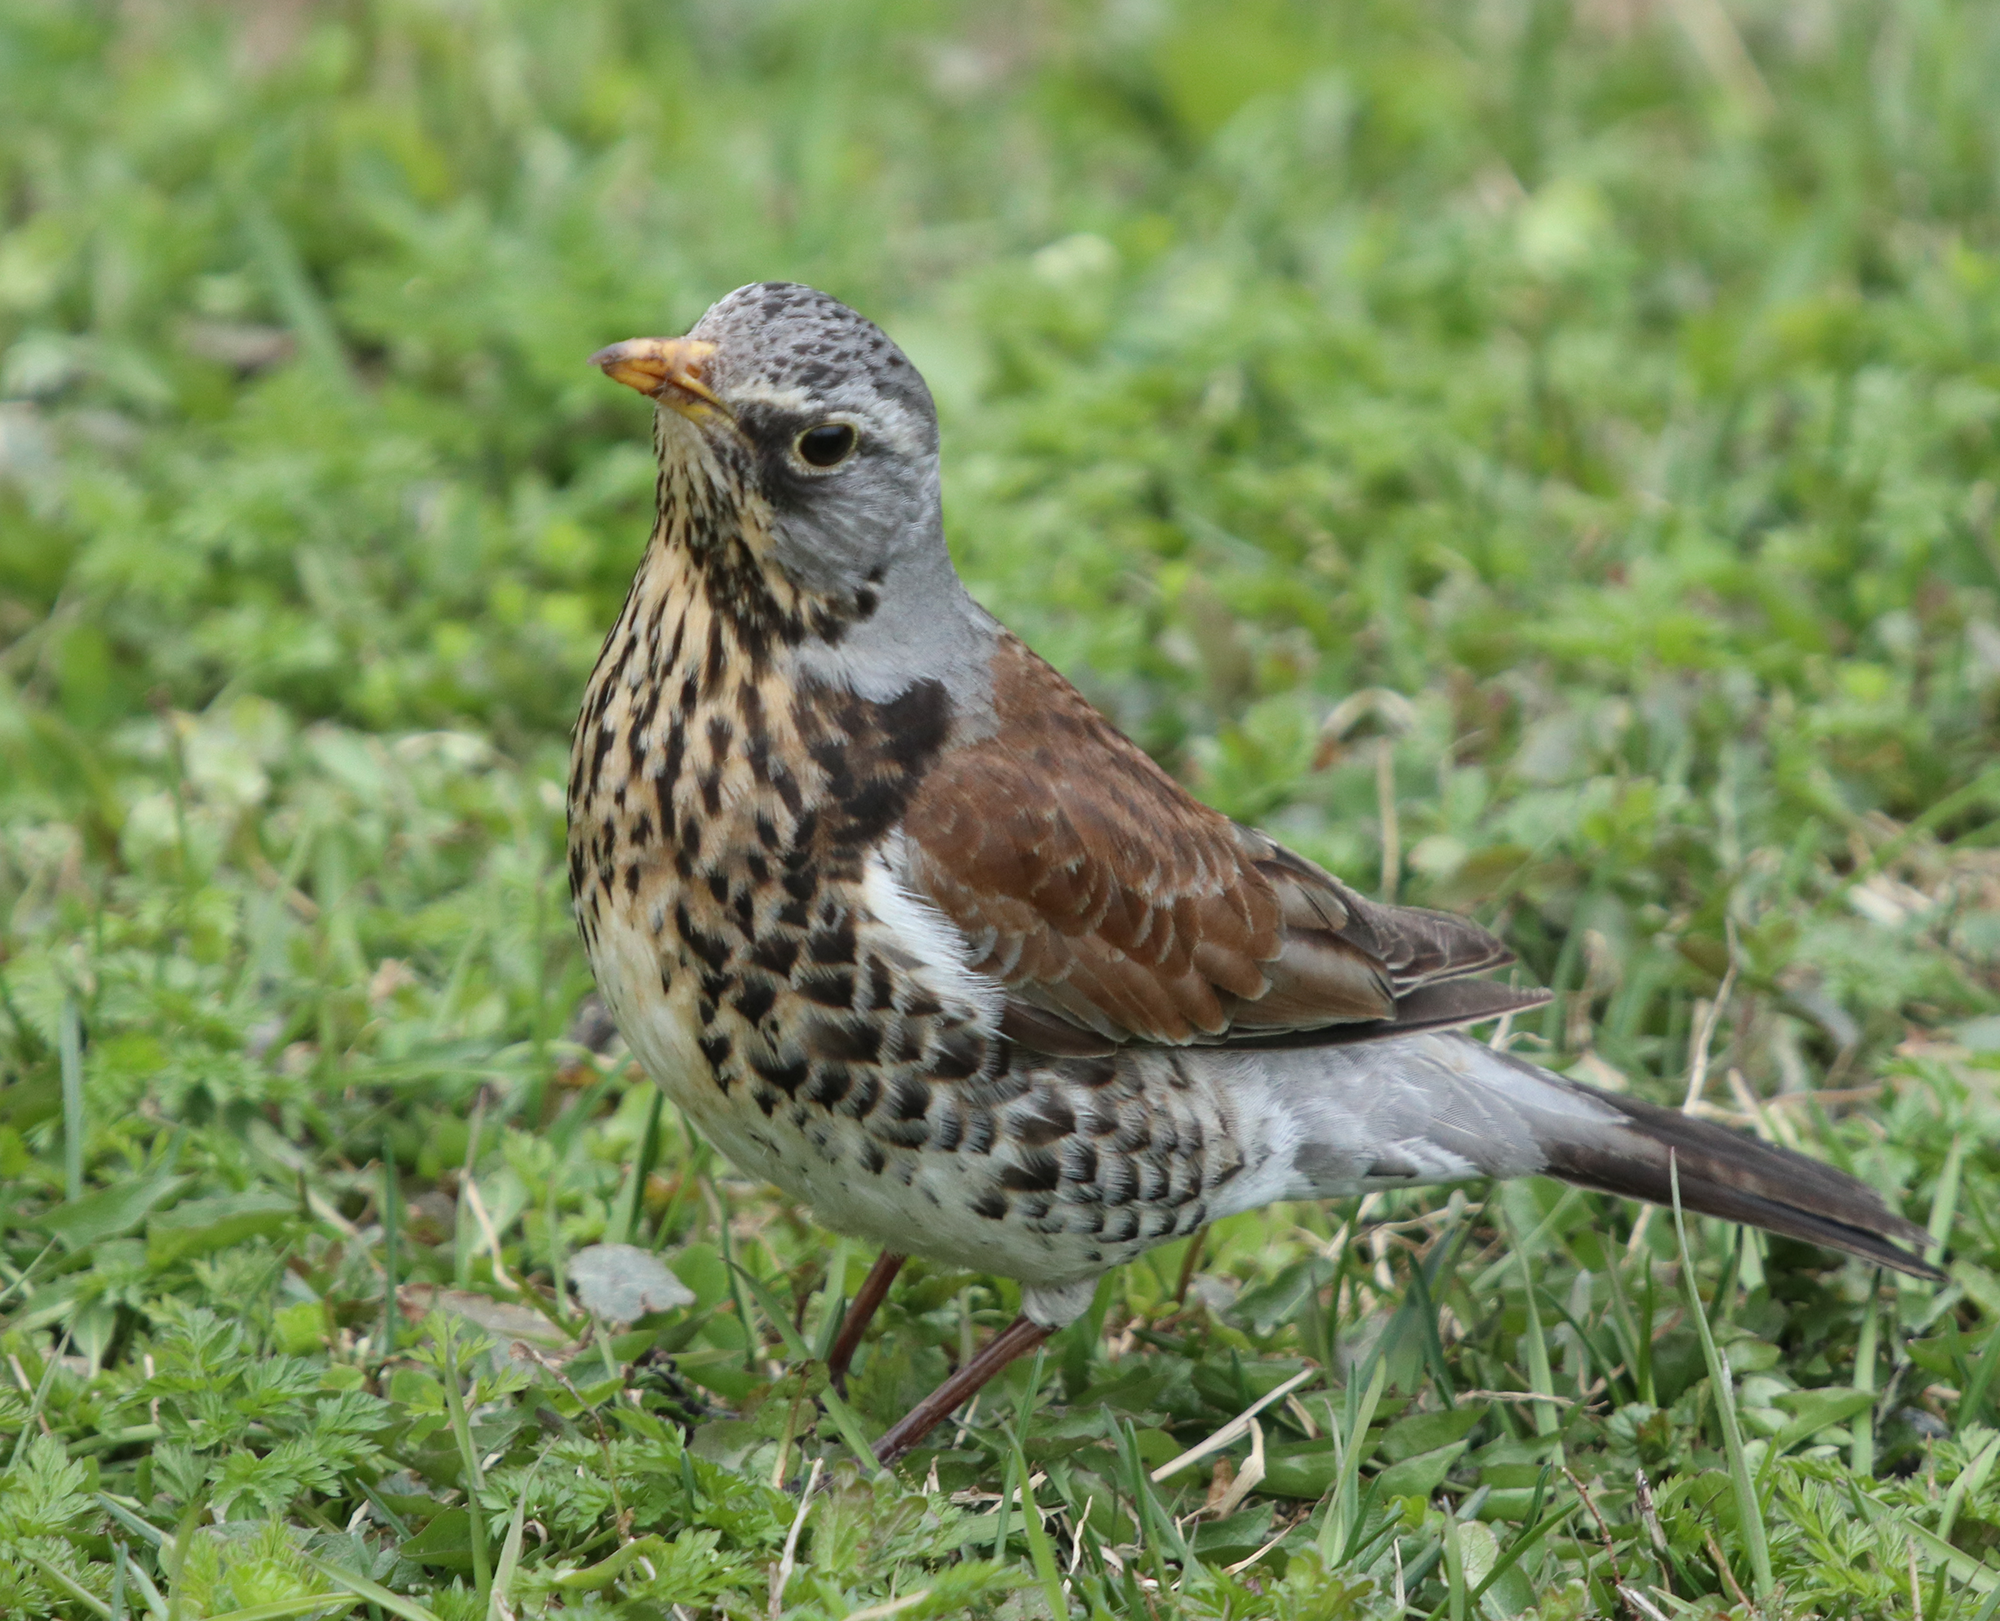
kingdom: Animalia
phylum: Chordata
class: Aves
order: Passeriformes
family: Turdidae
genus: Turdus
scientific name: Turdus pilaris
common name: Fieldfare
